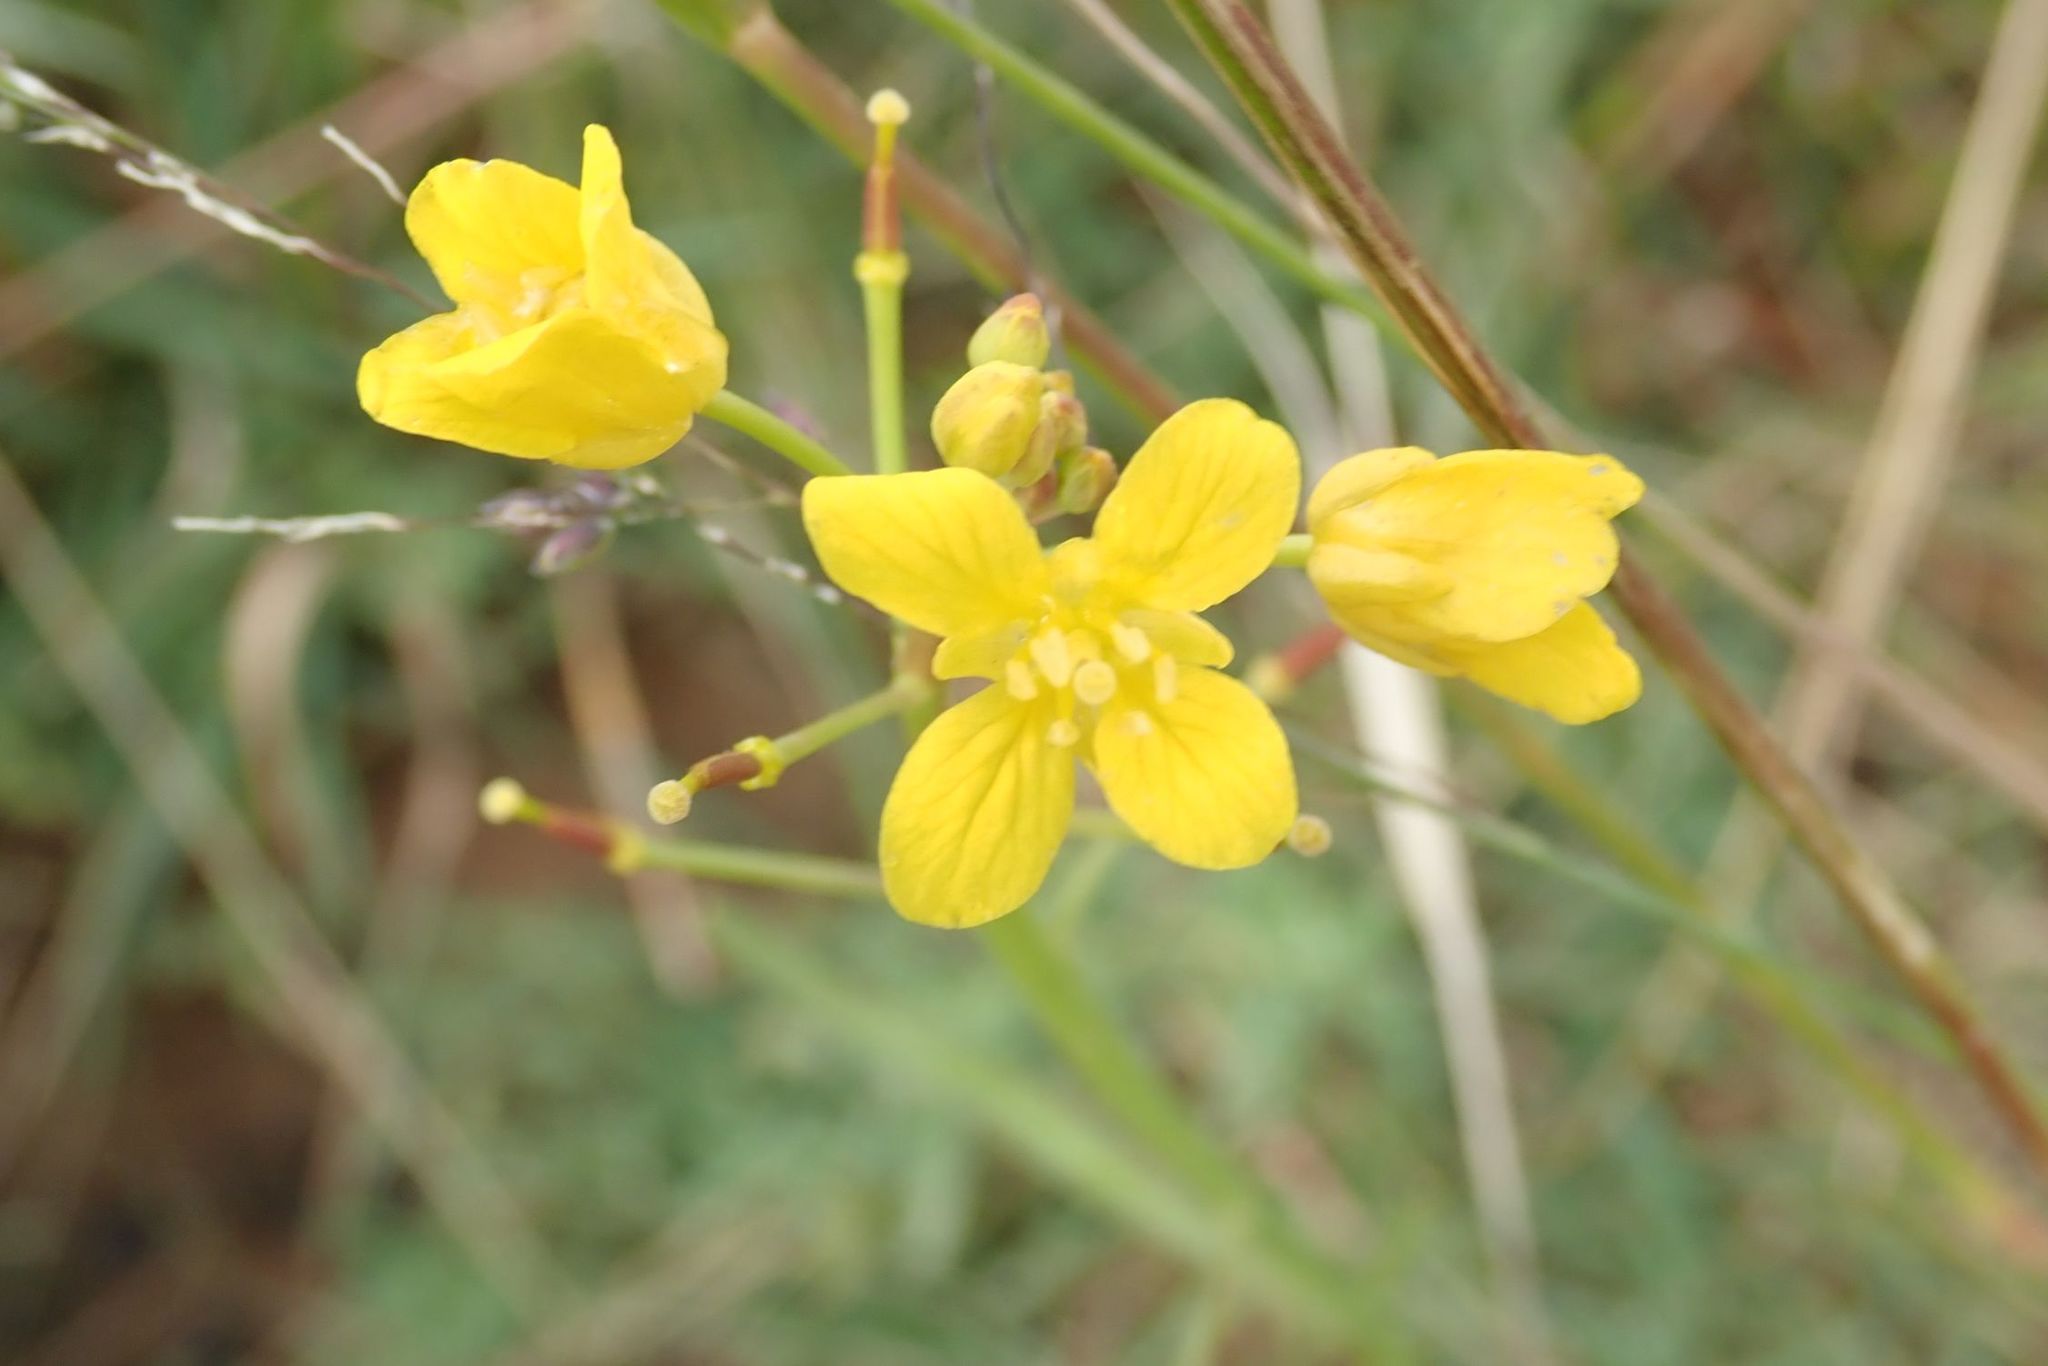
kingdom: Plantae
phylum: Tracheophyta
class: Magnoliopsida
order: Brassicales
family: Brassicaceae
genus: Rorippa
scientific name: Rorippa fluviatilis
